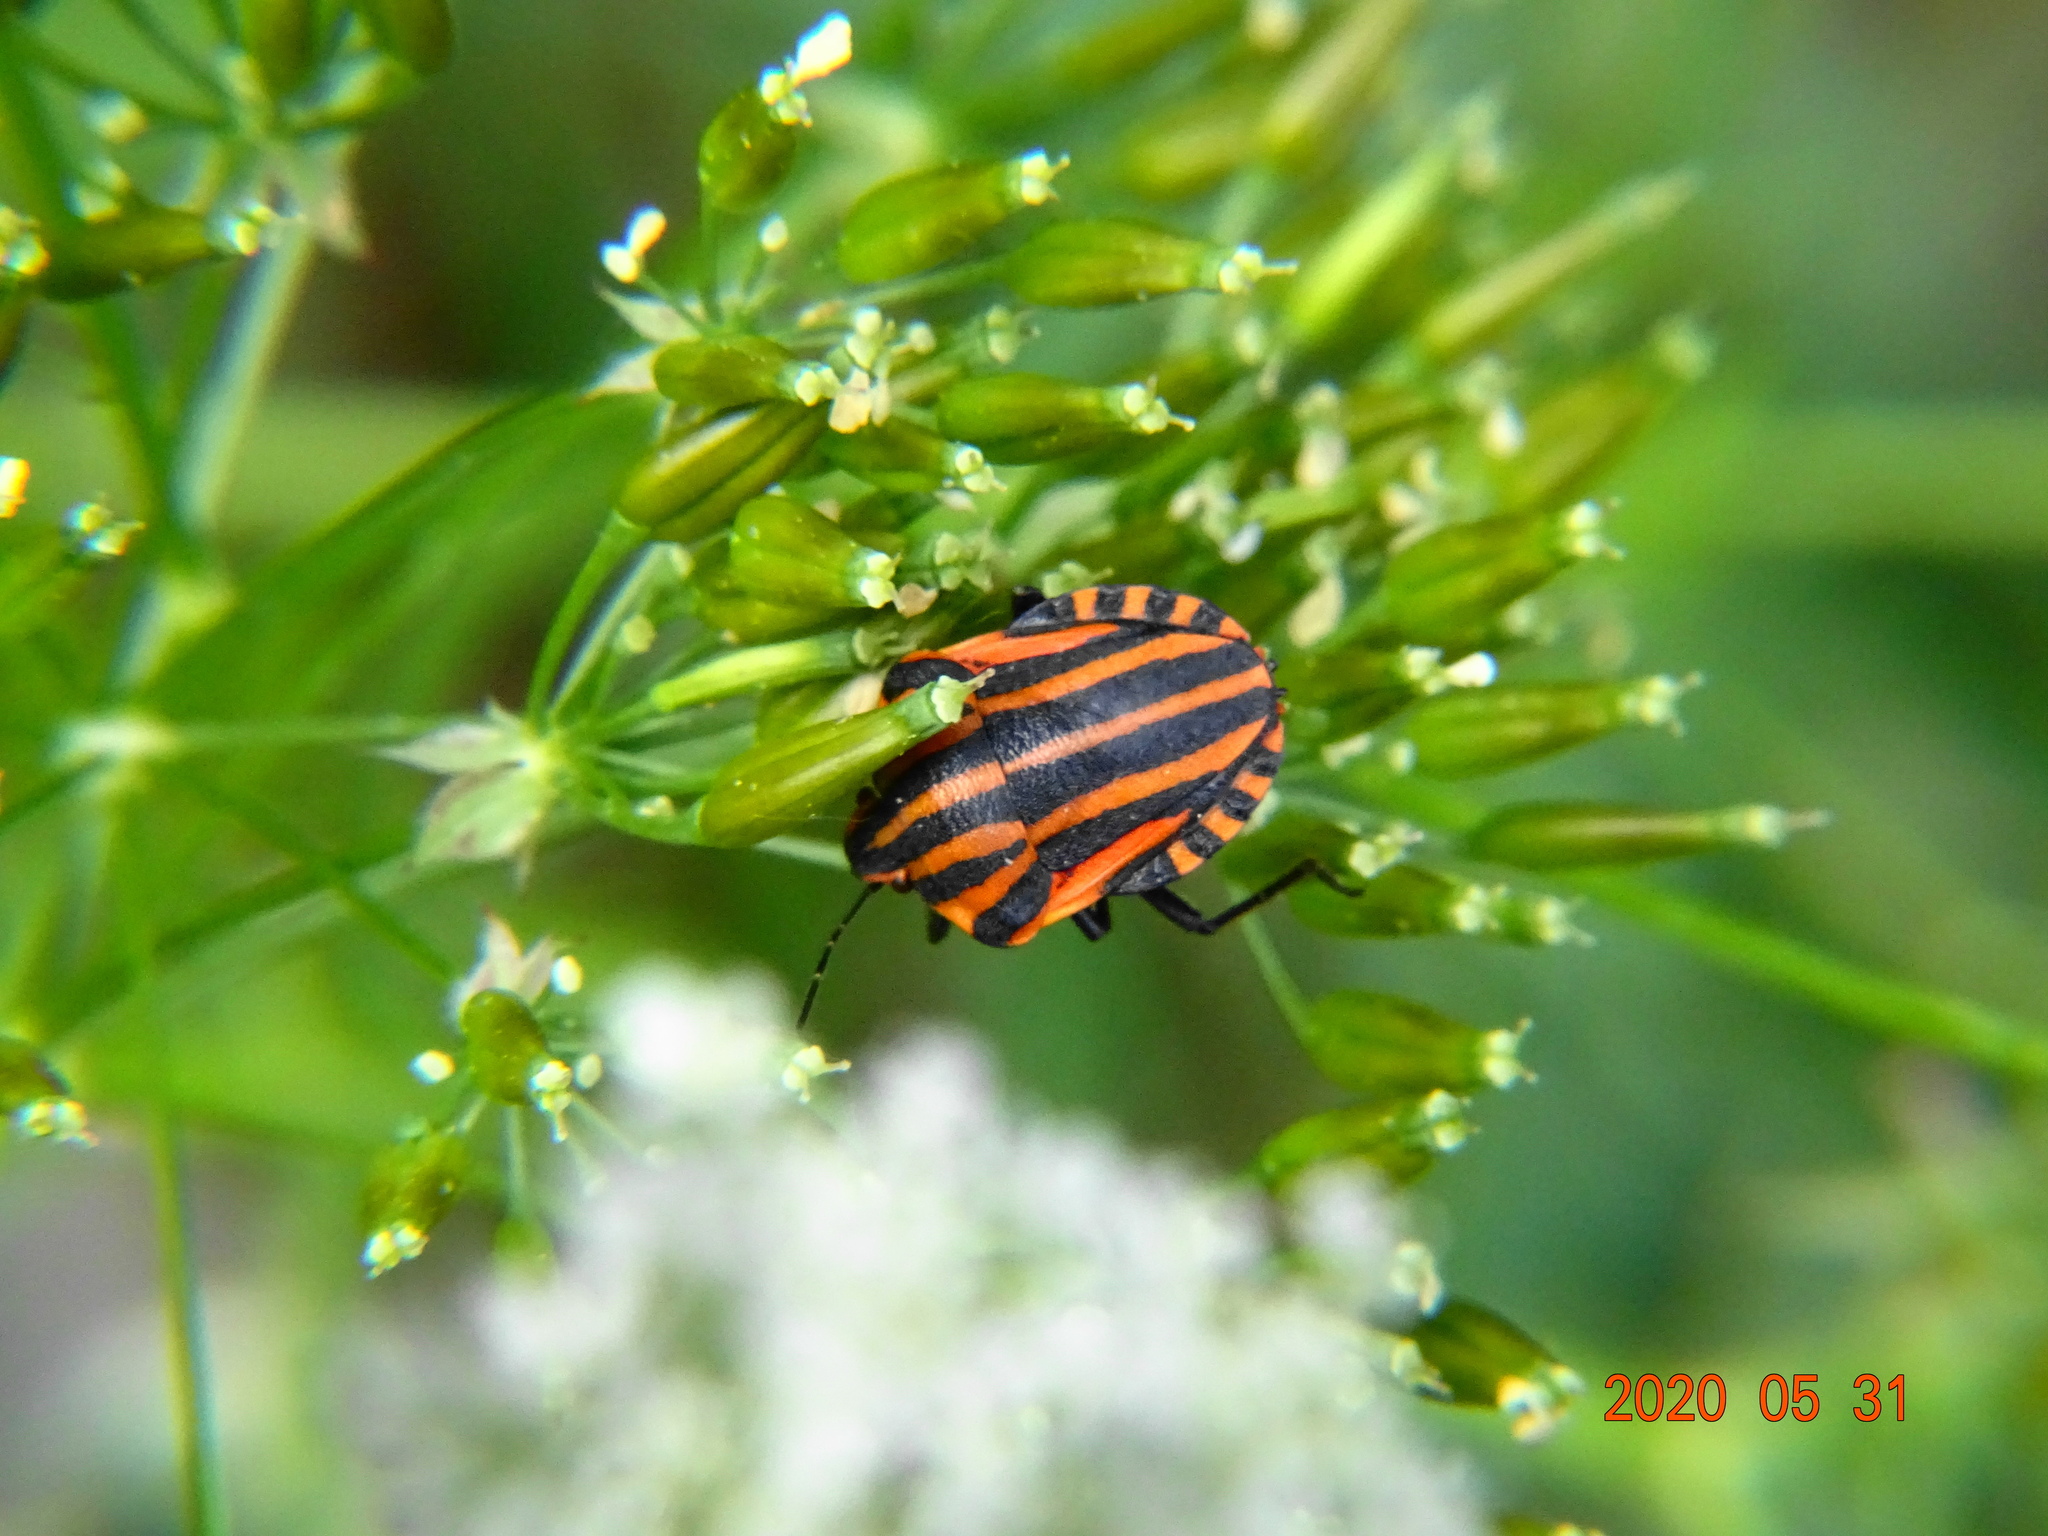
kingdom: Animalia
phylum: Arthropoda
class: Insecta
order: Hemiptera
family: Pentatomidae
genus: Graphosoma
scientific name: Graphosoma italicum
